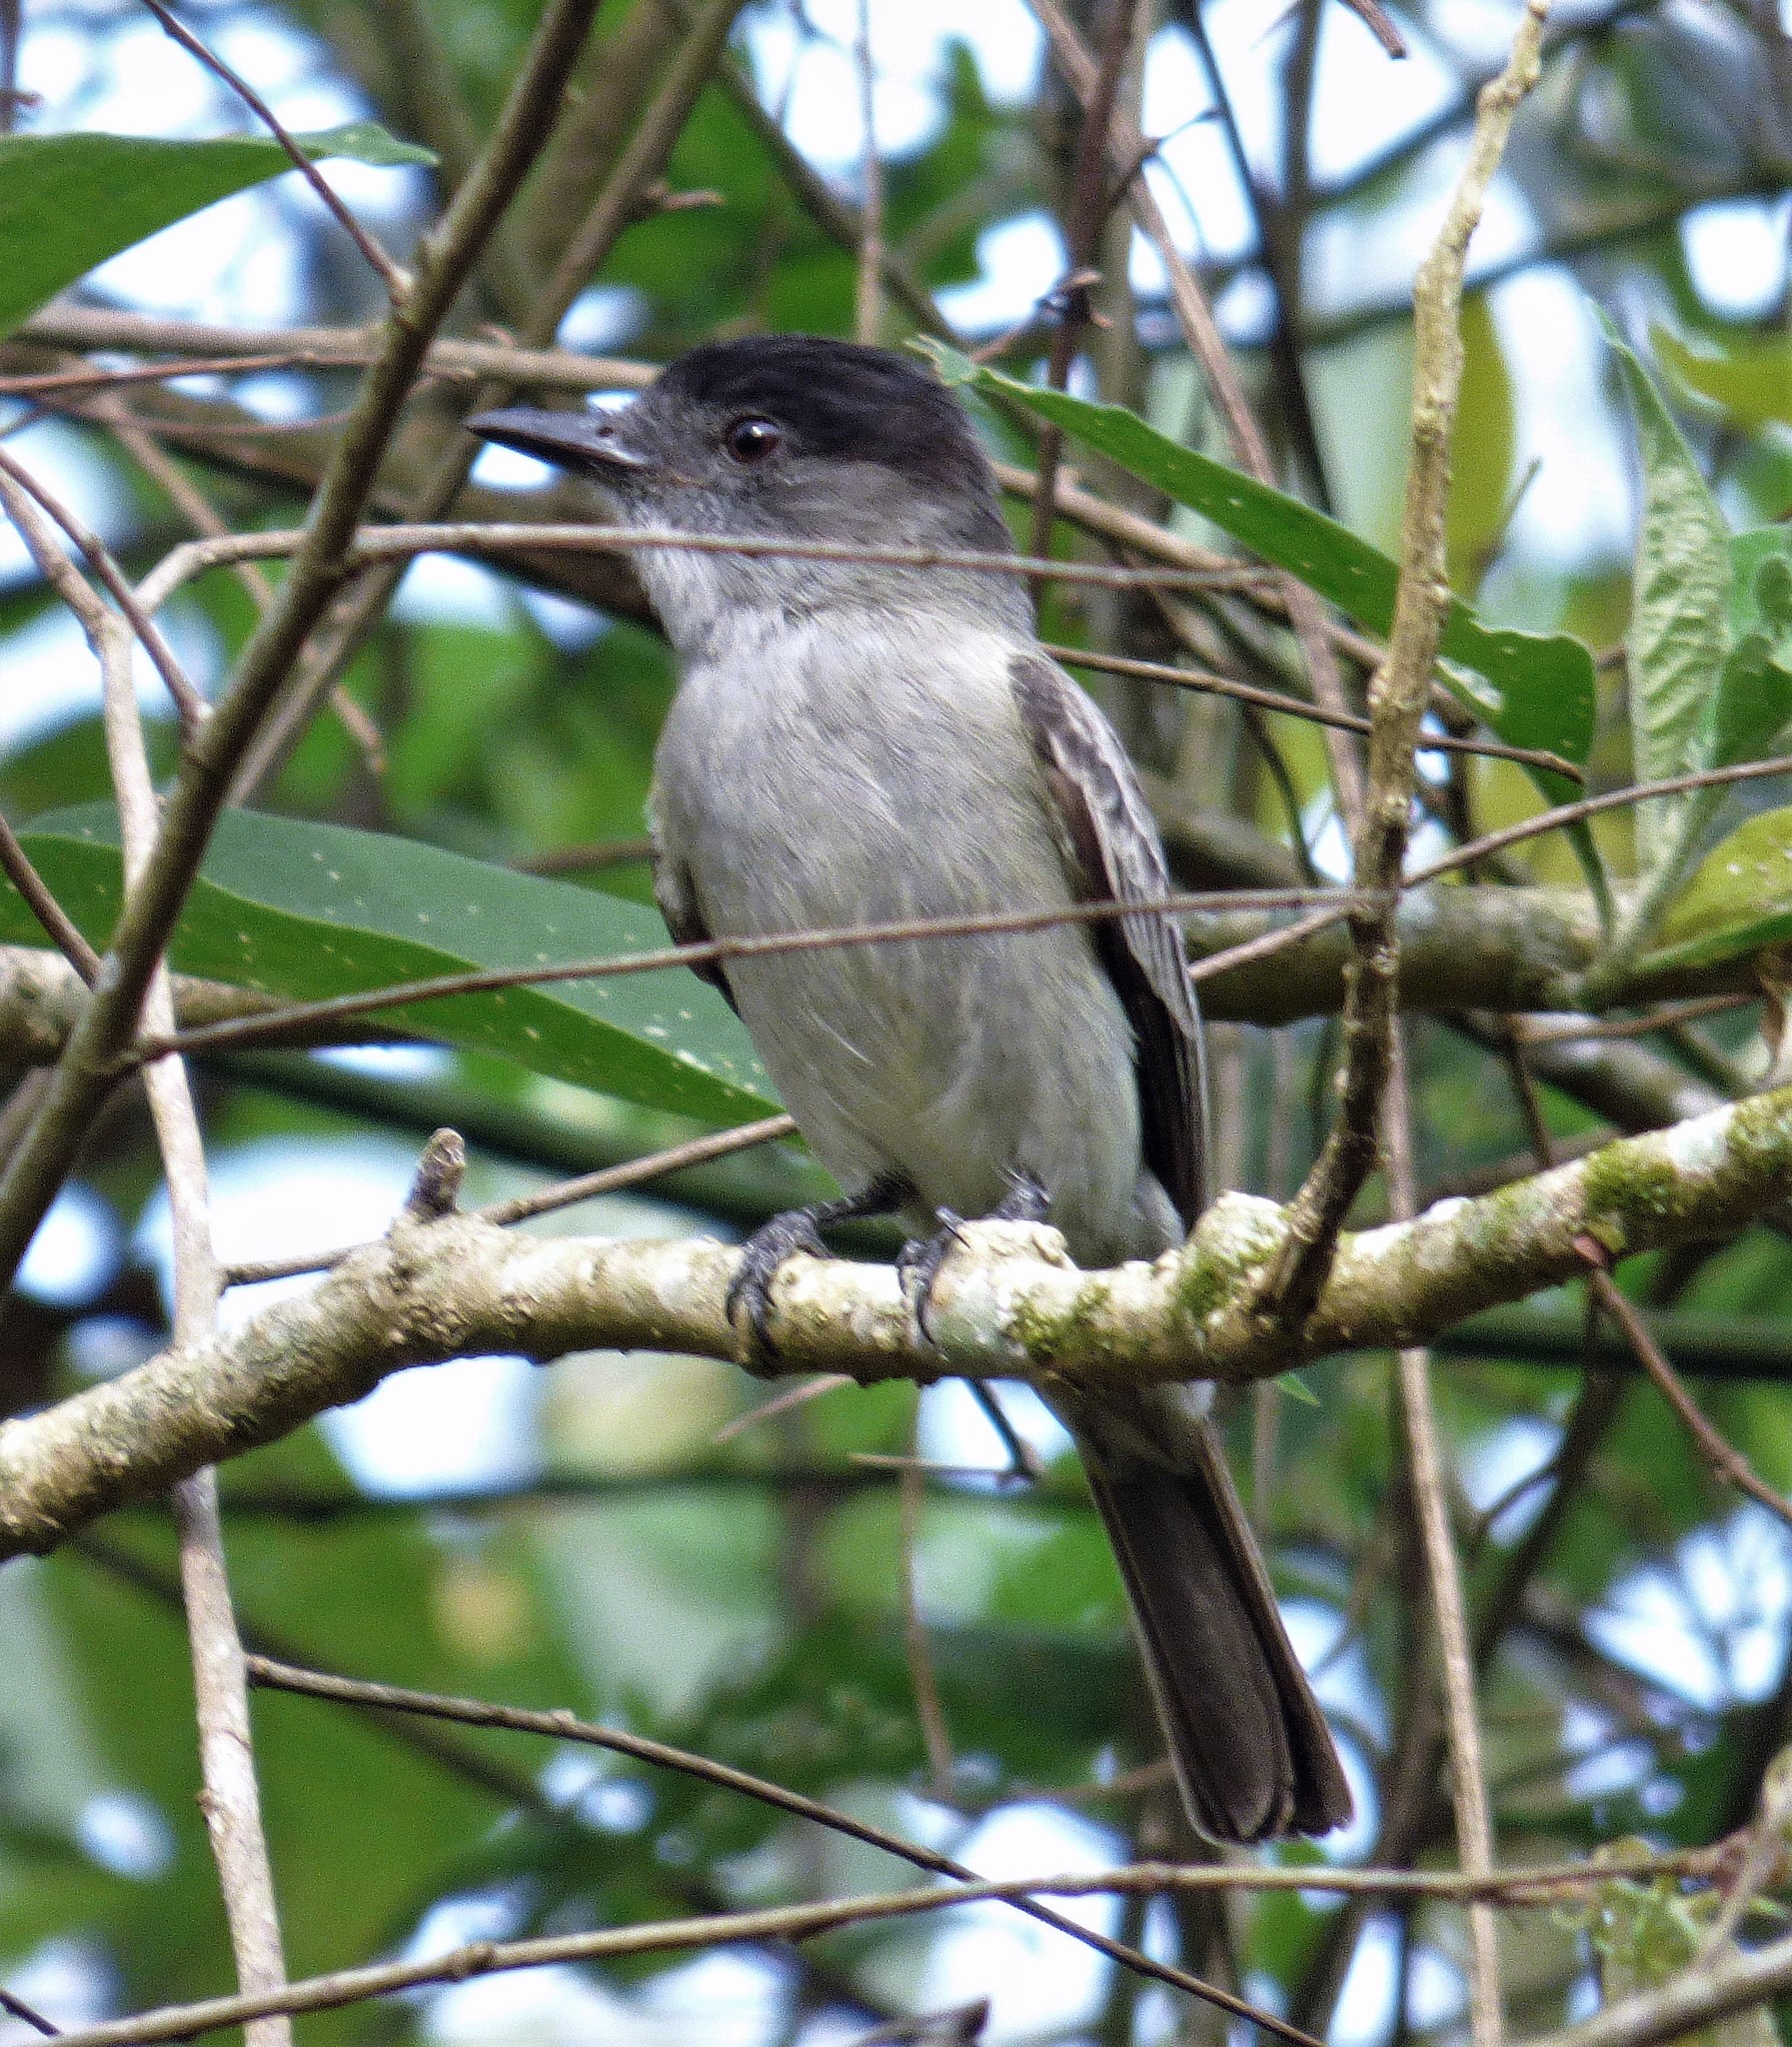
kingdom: Animalia
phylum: Chordata
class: Aves
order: Passeriformes
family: Tyrannidae
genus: Sirystes
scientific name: Sirystes sibilator
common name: Sirystes
